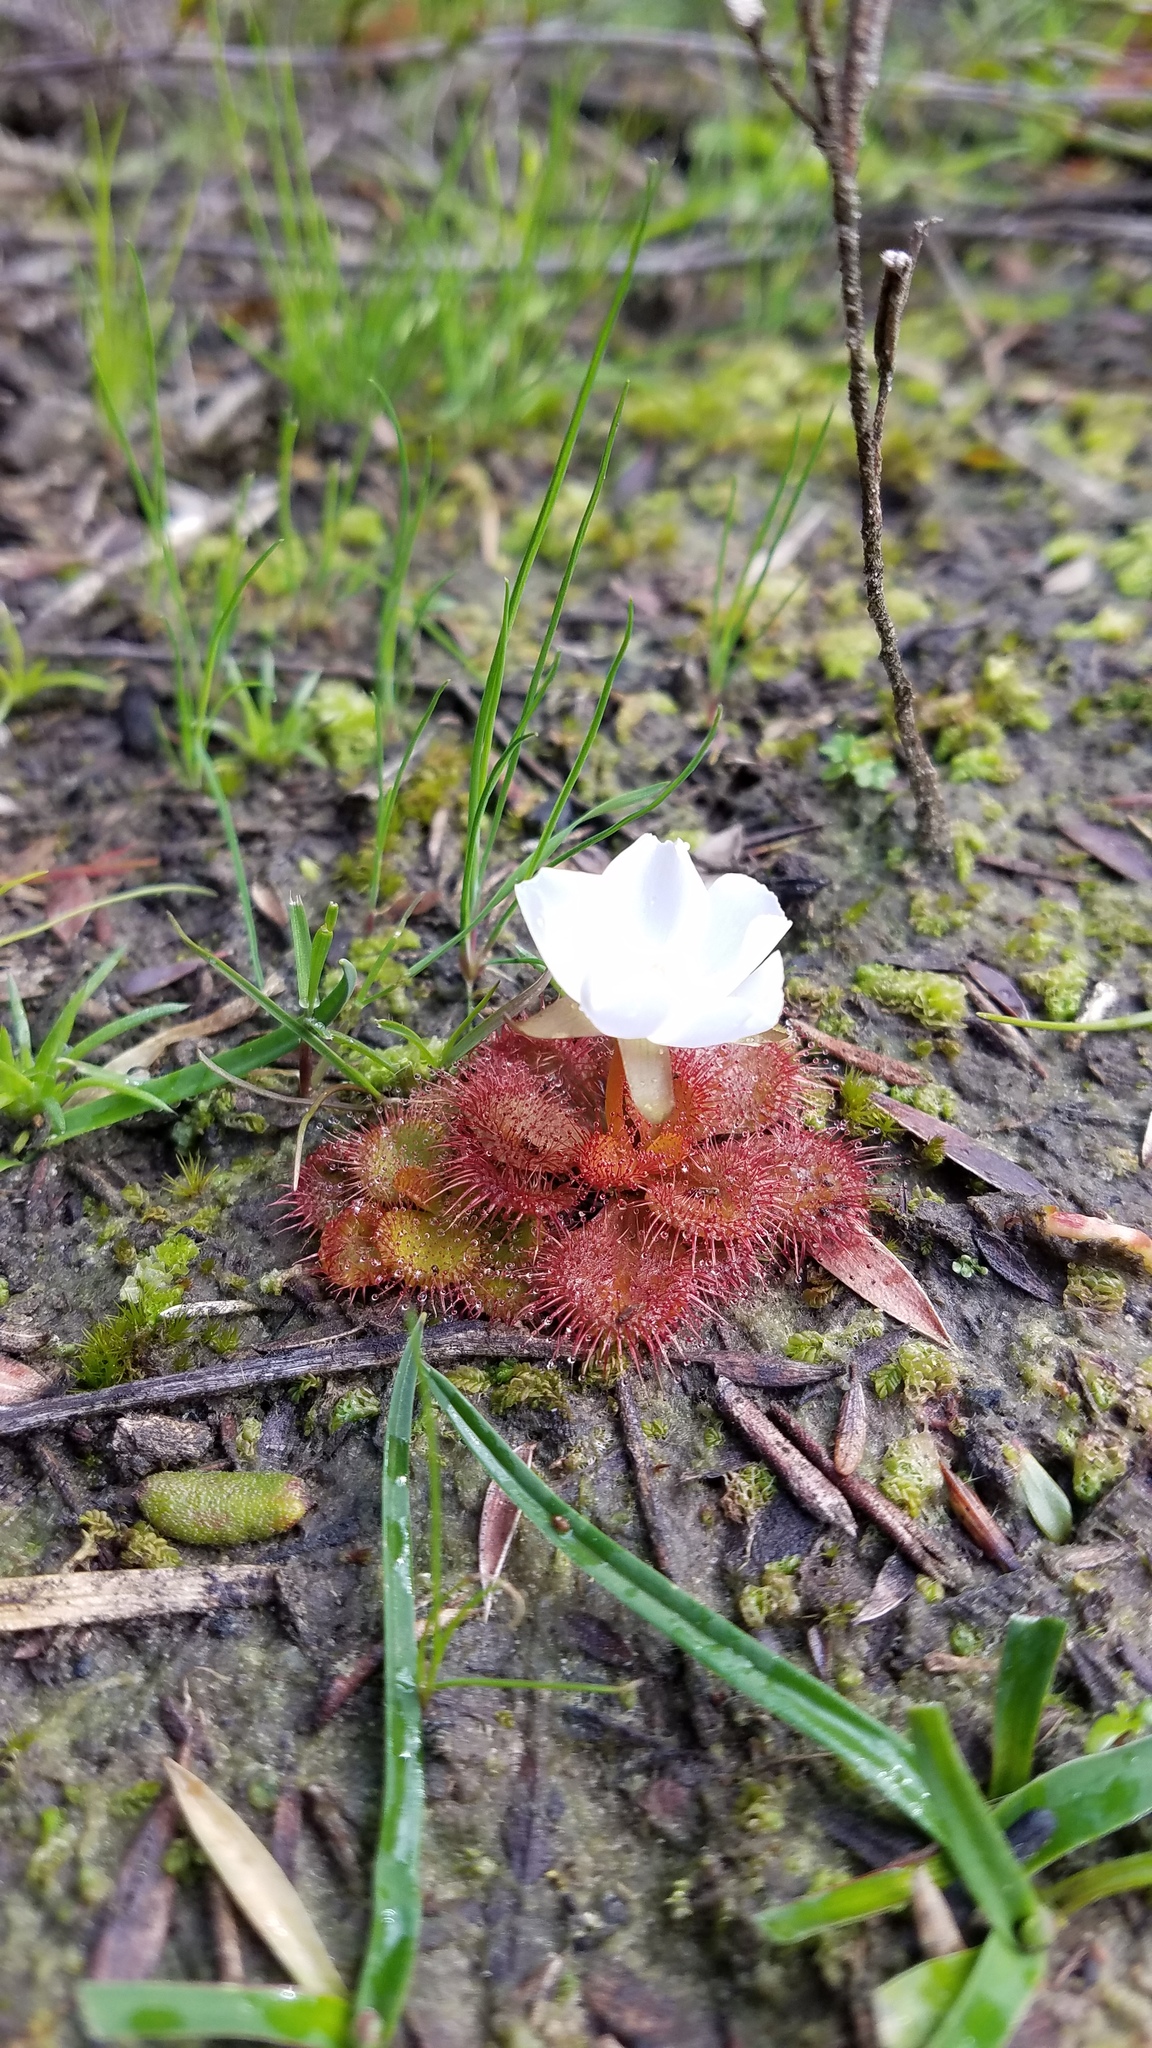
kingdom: Plantae
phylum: Tracheophyta
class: Magnoliopsida
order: Caryophyllales
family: Droseraceae
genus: Drosera
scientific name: Drosera aberrans
